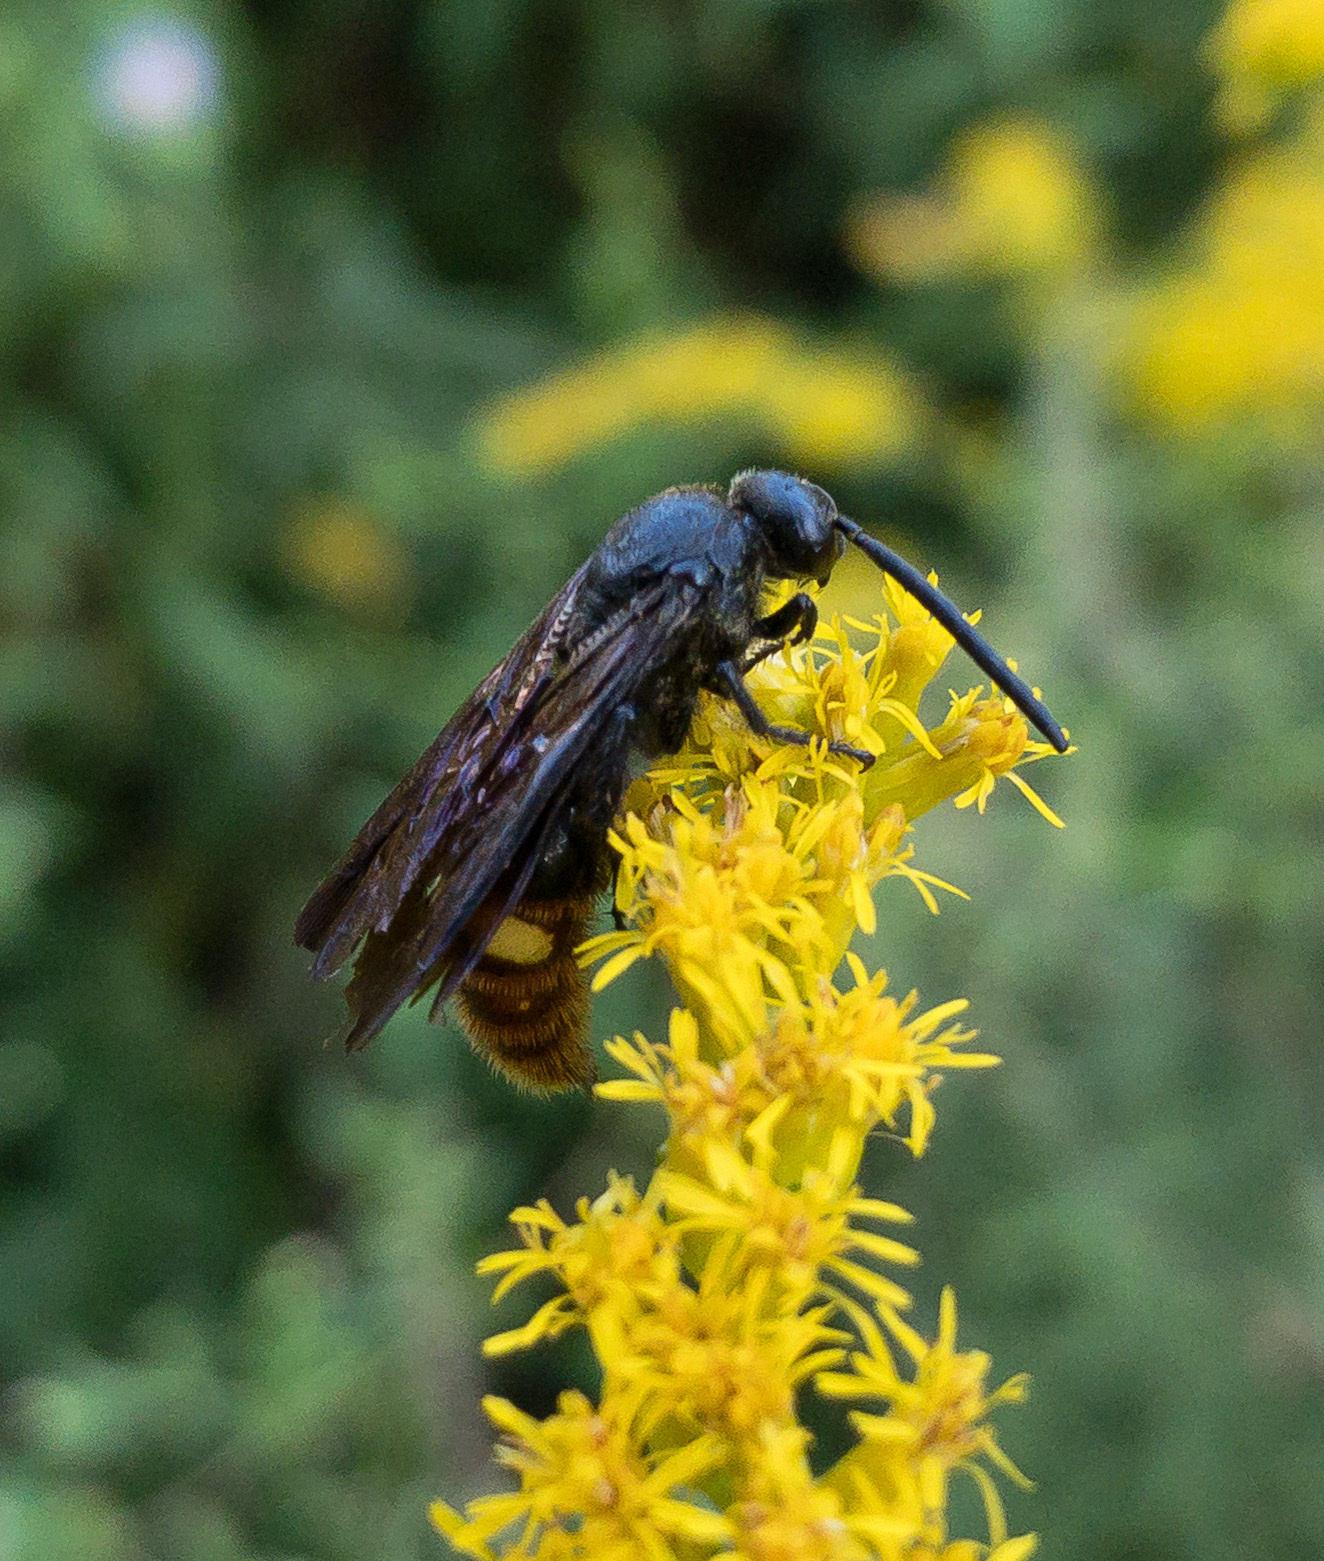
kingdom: Animalia
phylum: Arthropoda
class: Insecta
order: Hymenoptera
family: Scoliidae
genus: Scolia
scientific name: Scolia dubia
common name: Blue-winged scoliid wasp
